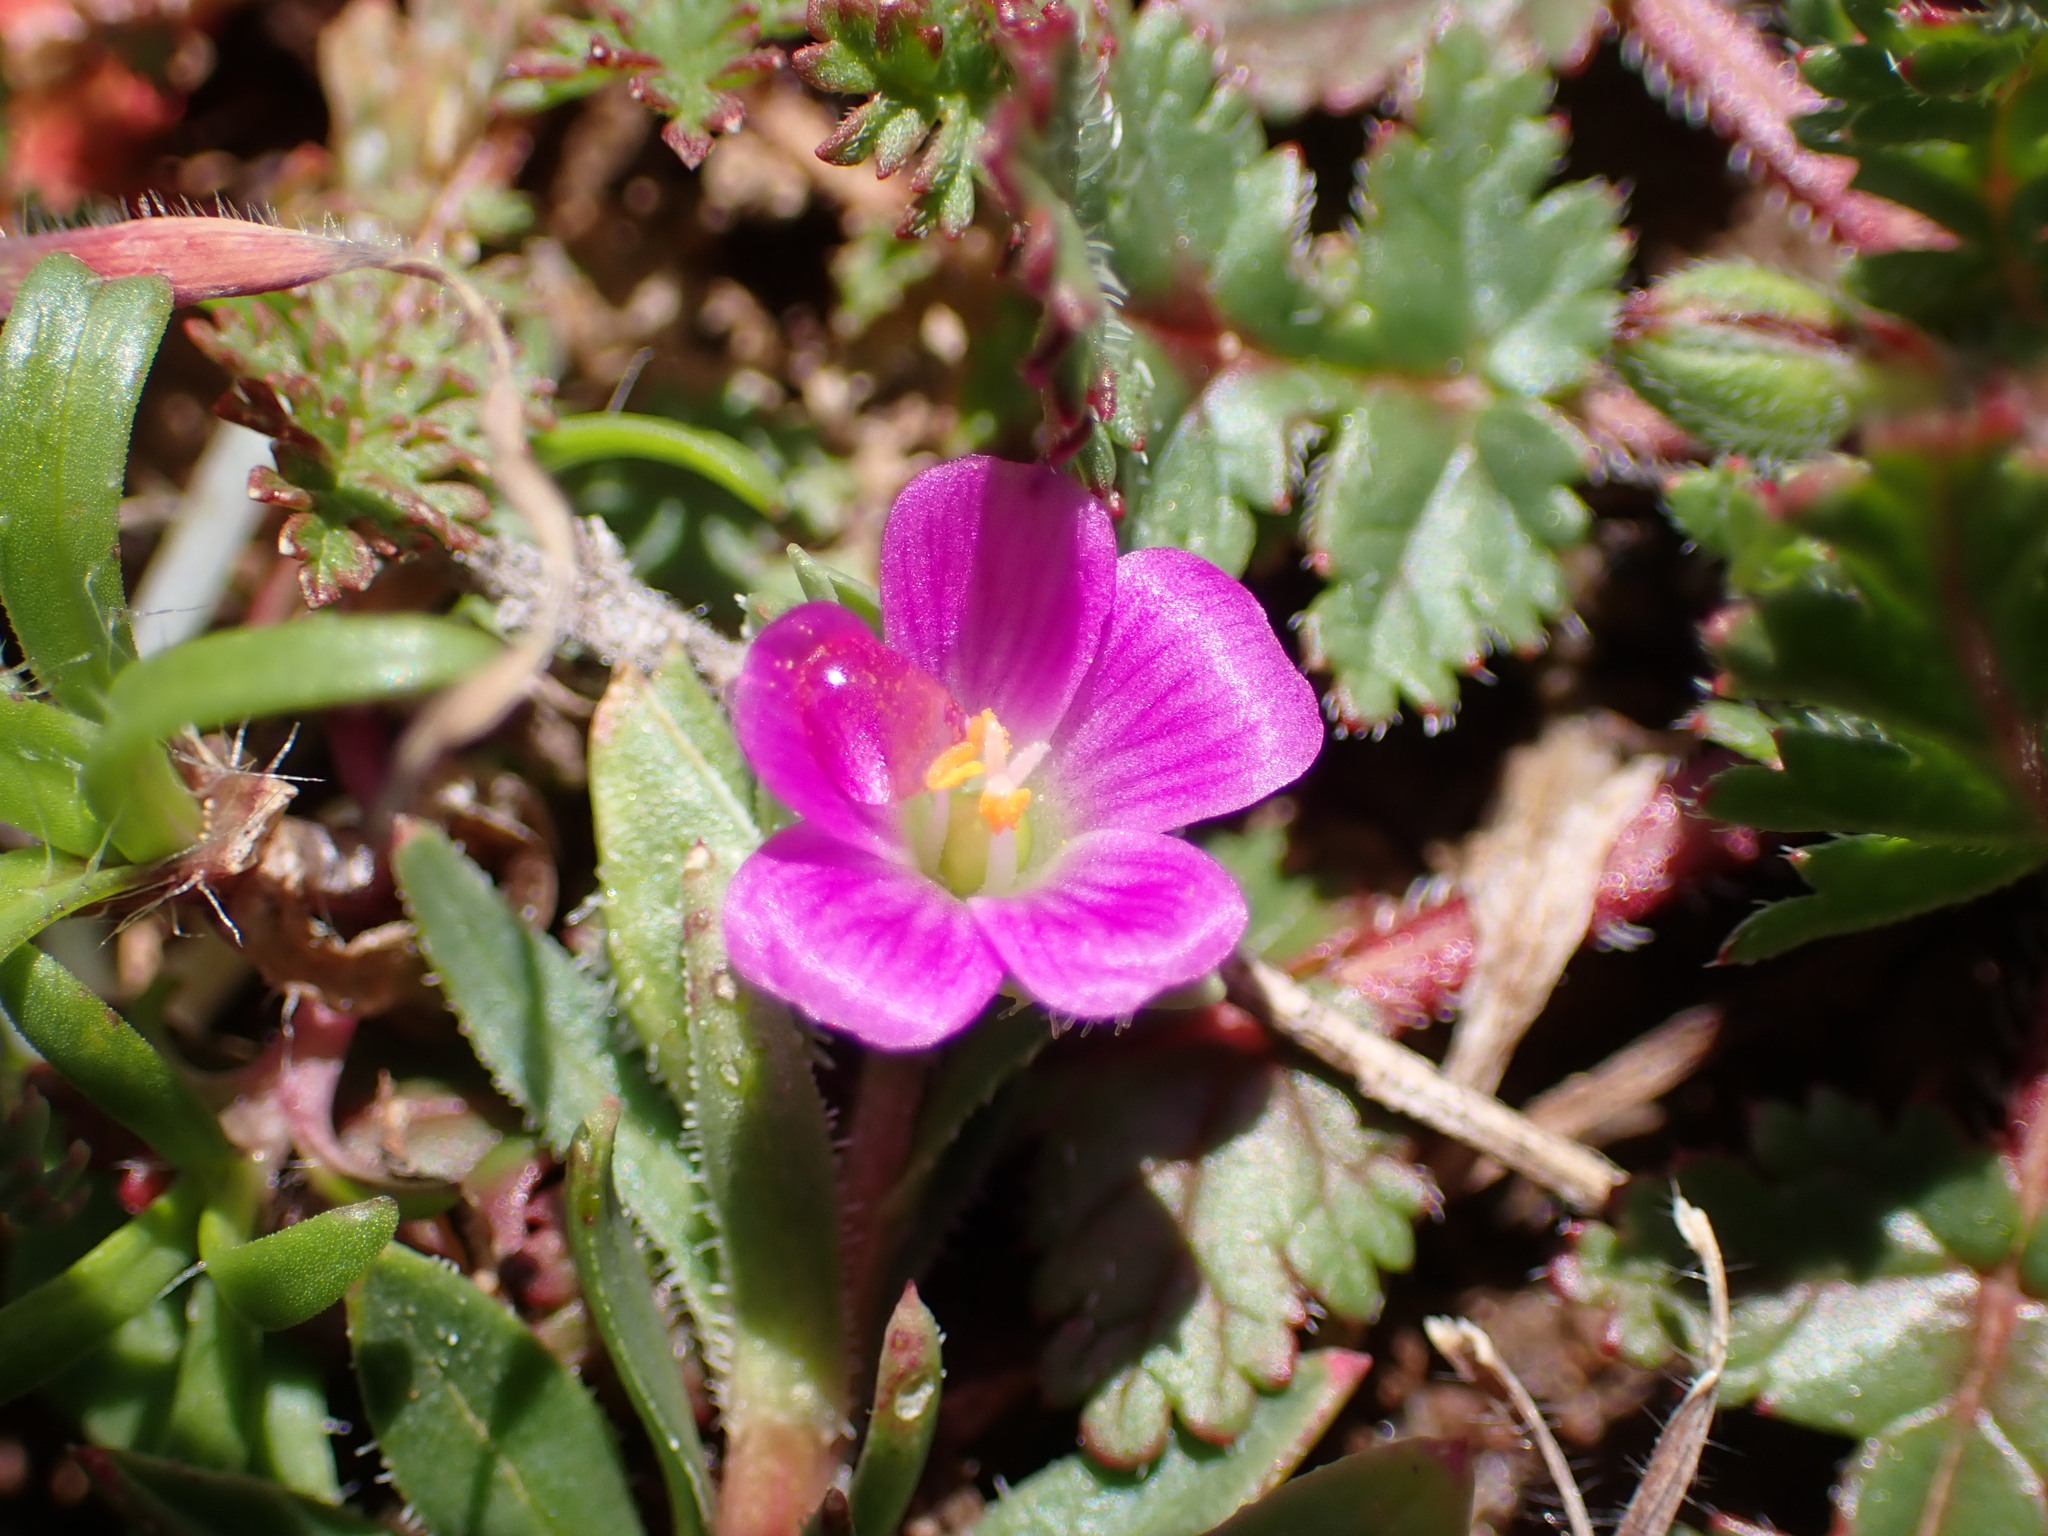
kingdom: Plantae
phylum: Tracheophyta
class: Magnoliopsida
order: Caryophyllales
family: Montiaceae
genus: Calandrinia
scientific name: Calandrinia menziesii
